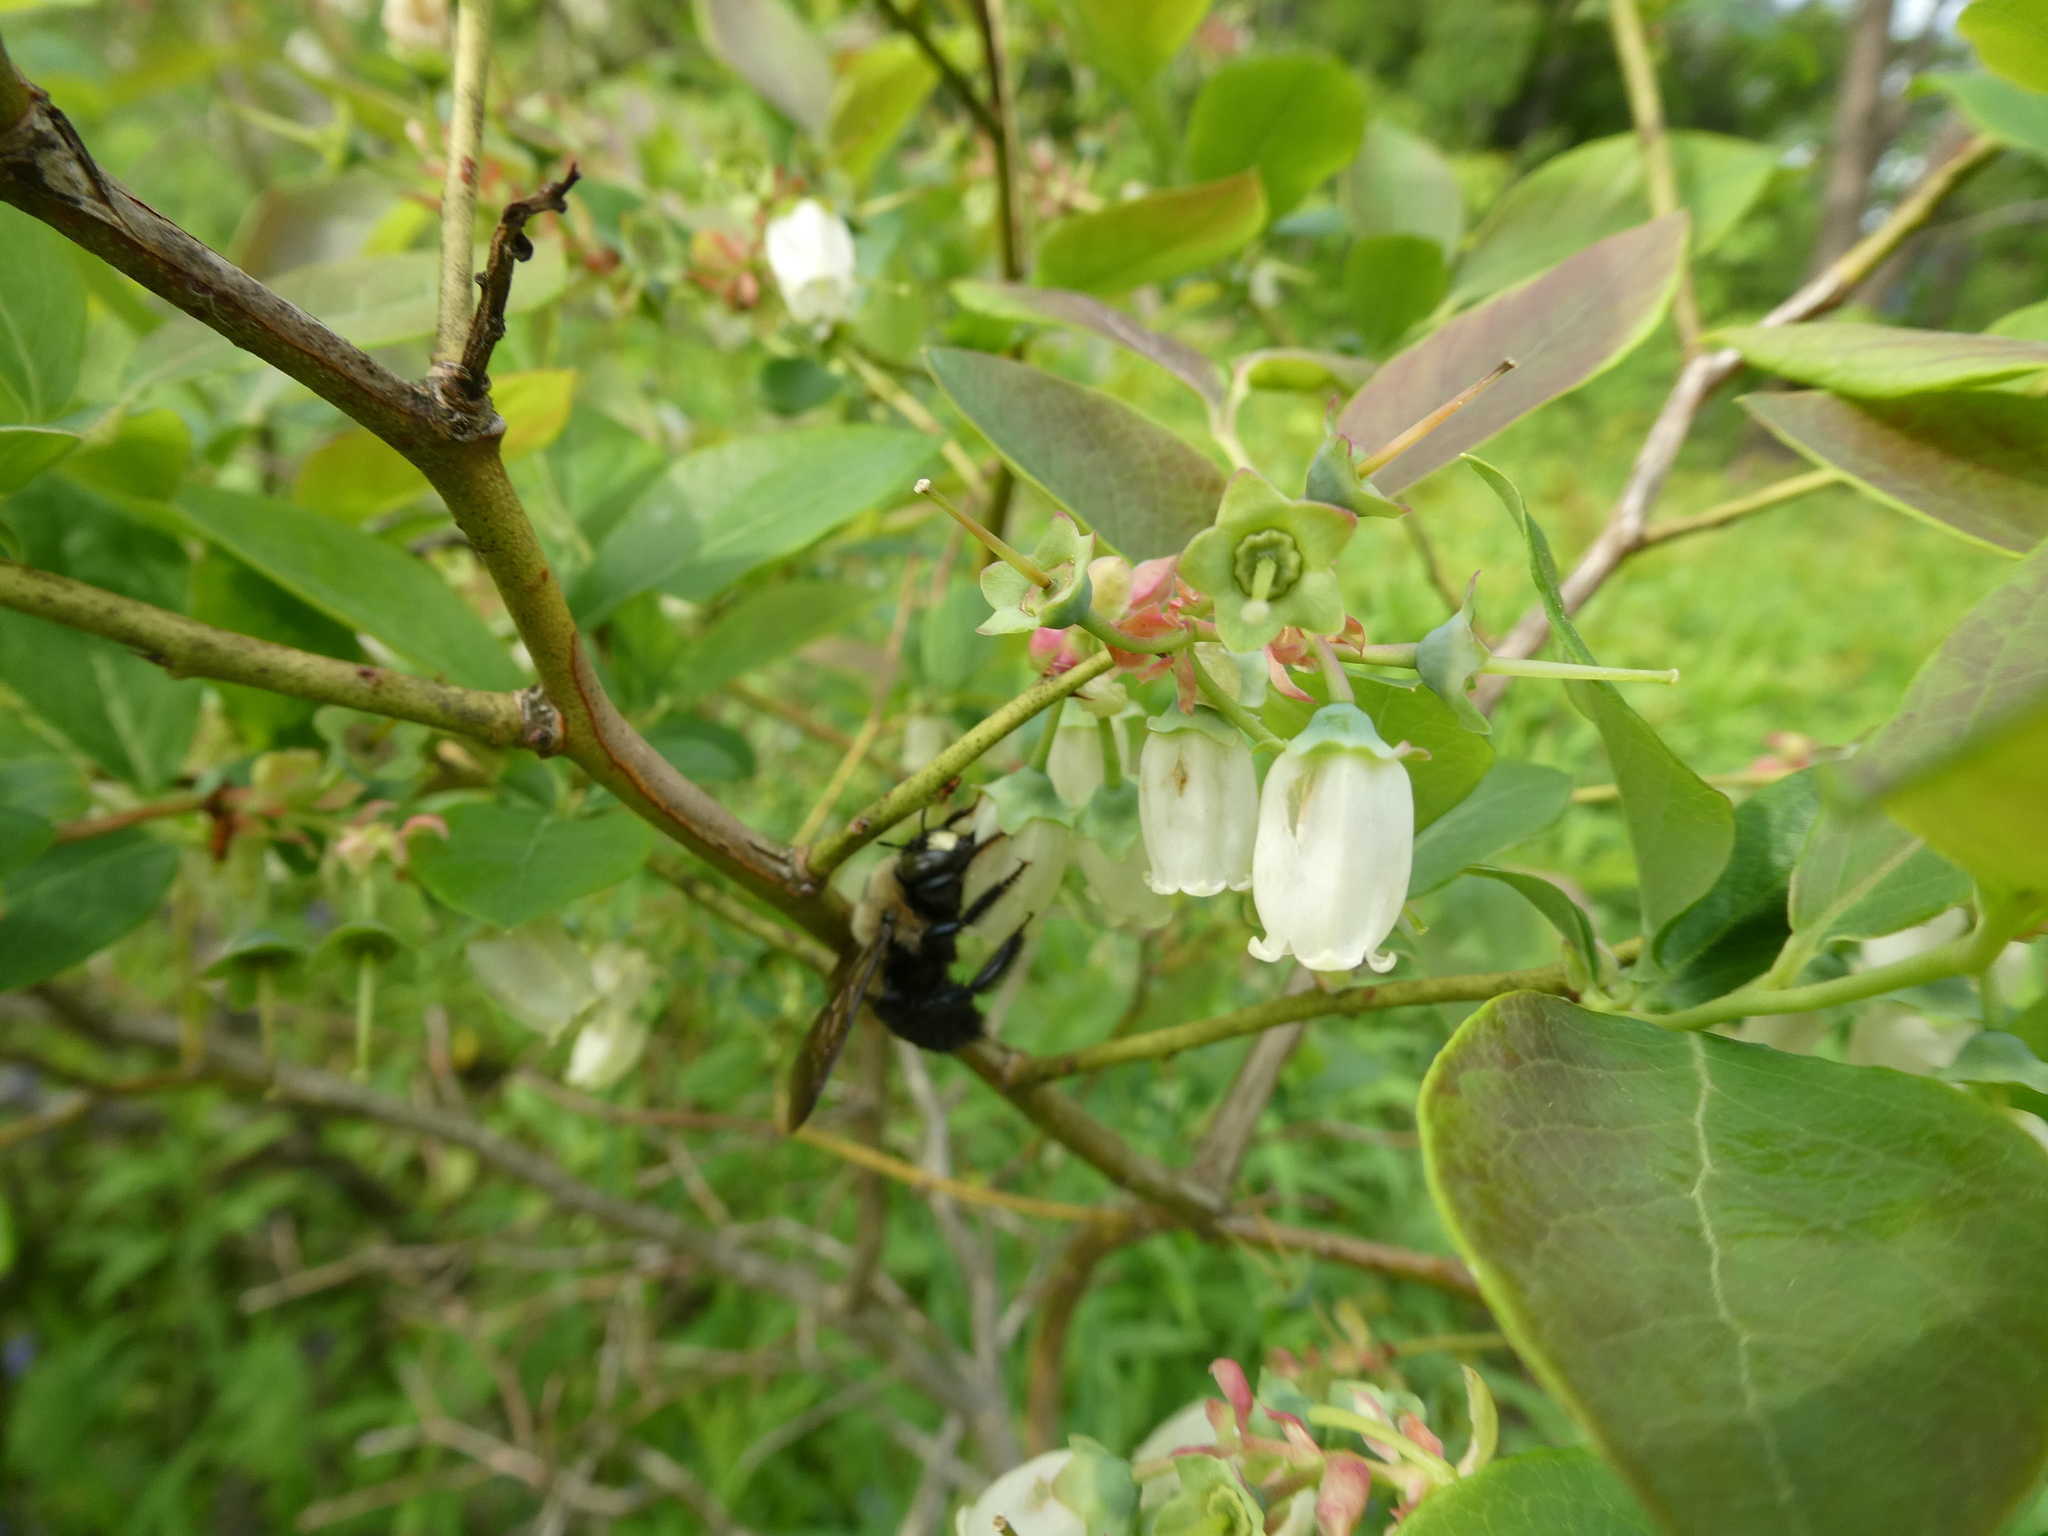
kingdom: Animalia
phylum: Arthropoda
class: Insecta
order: Hymenoptera
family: Apidae
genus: Xylocopa
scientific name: Xylocopa virginica
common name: Carpenter bee
